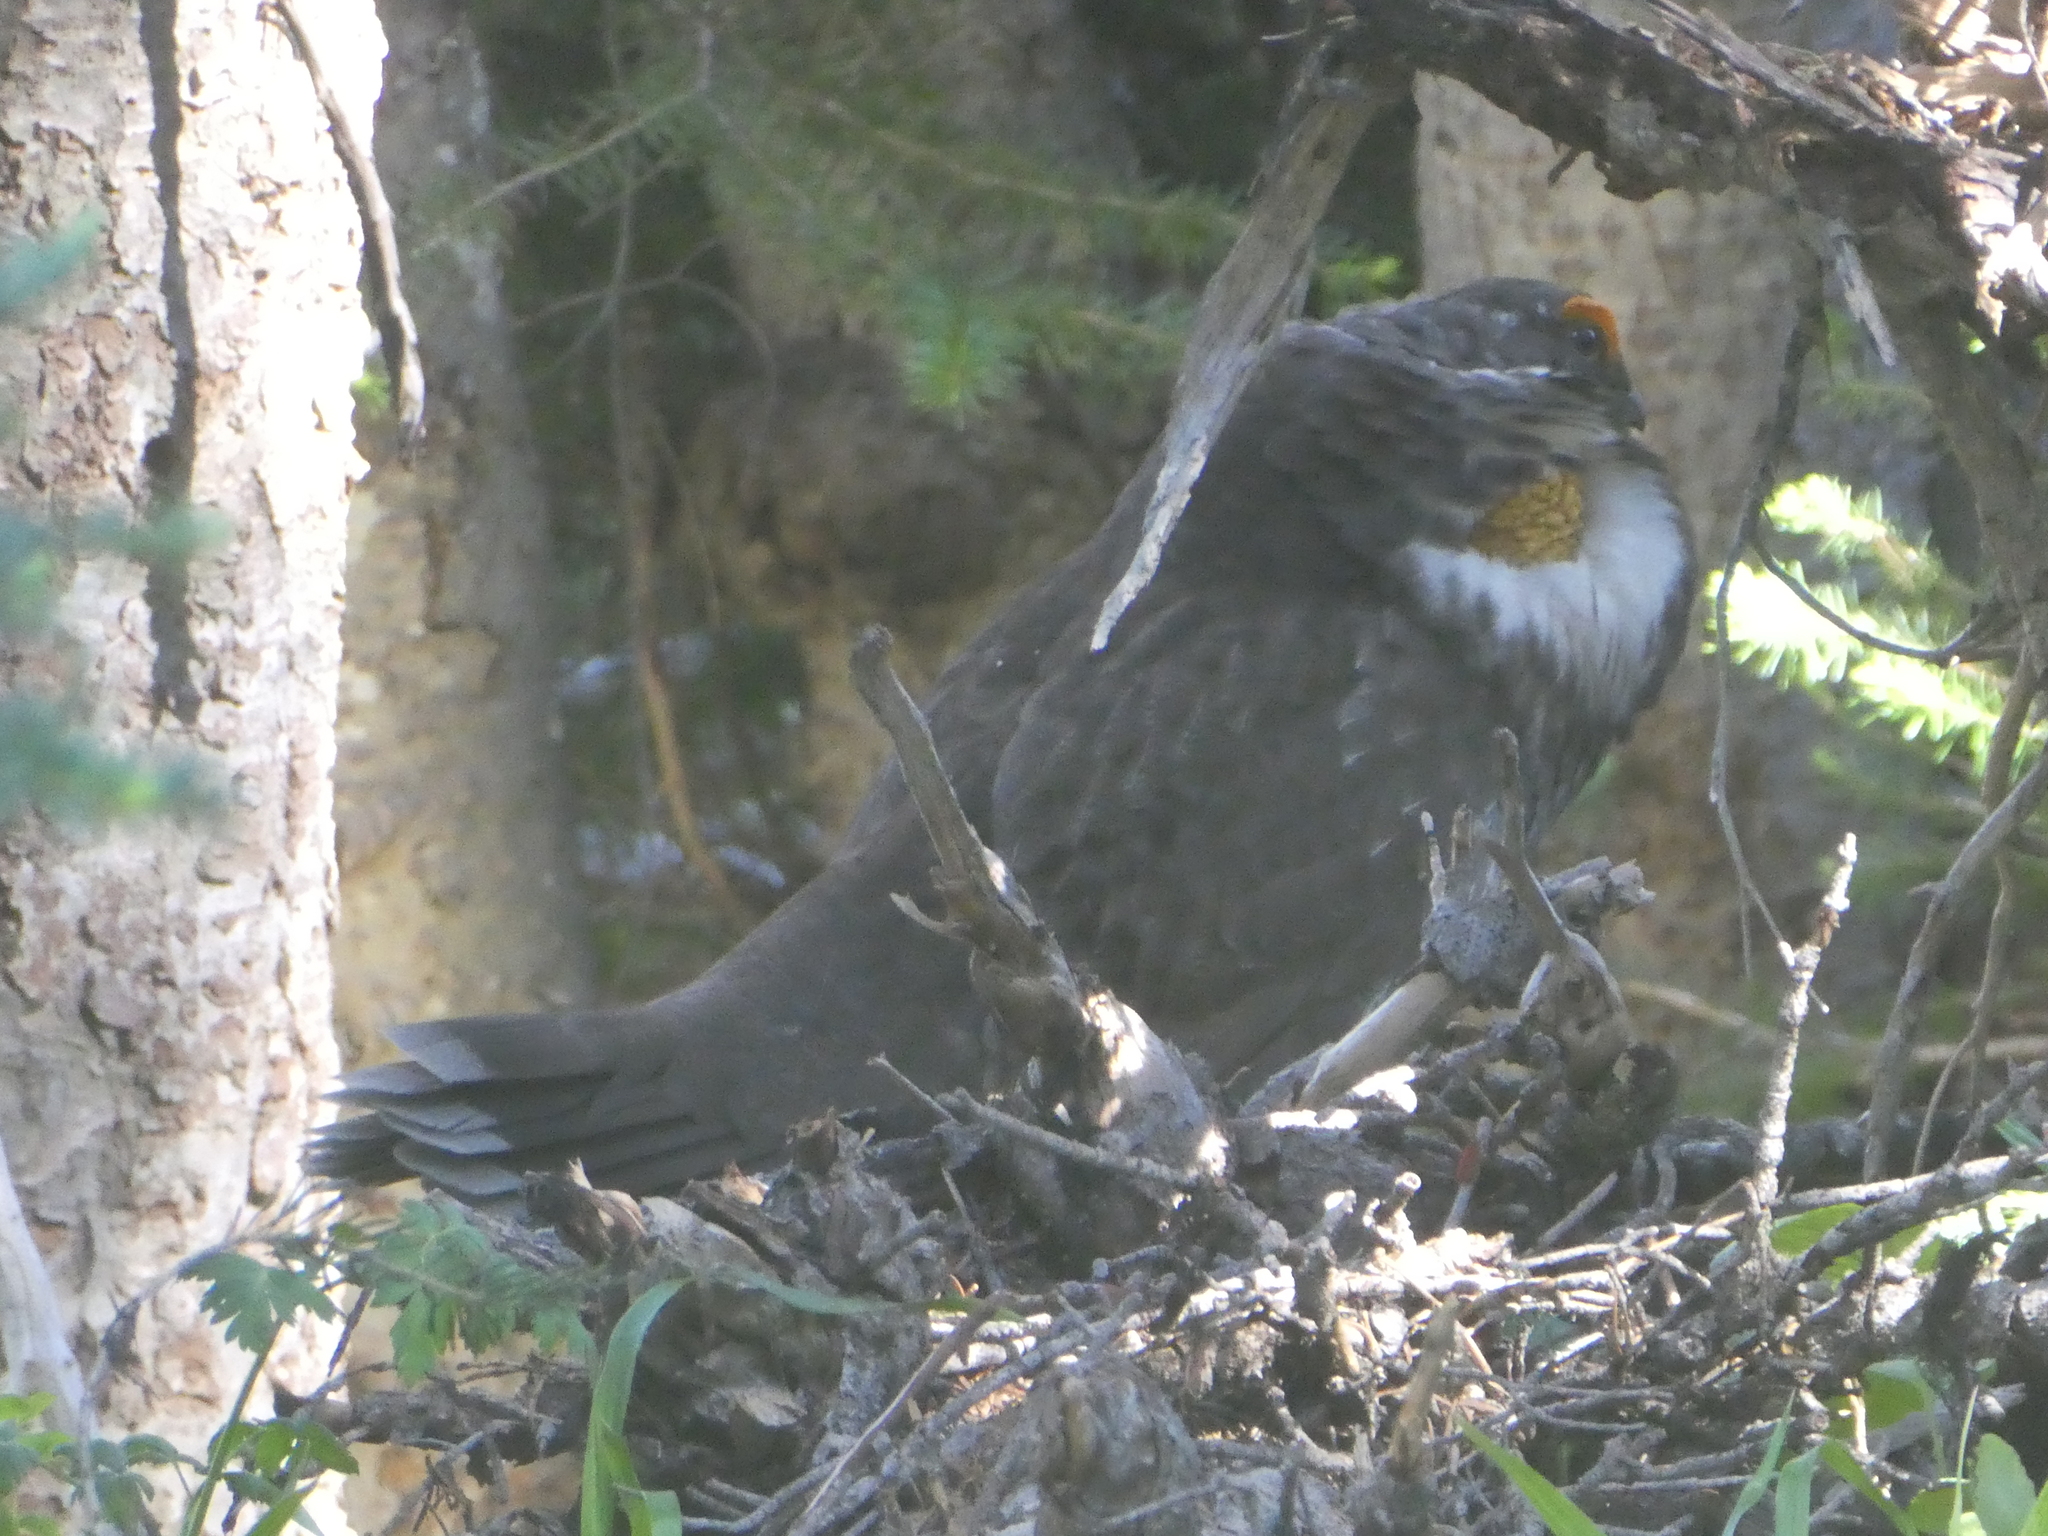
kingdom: Animalia
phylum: Chordata
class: Aves
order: Galliformes
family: Phasianidae
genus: Dendragapus
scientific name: Dendragapus fuliginosus
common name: Sooty grouse
